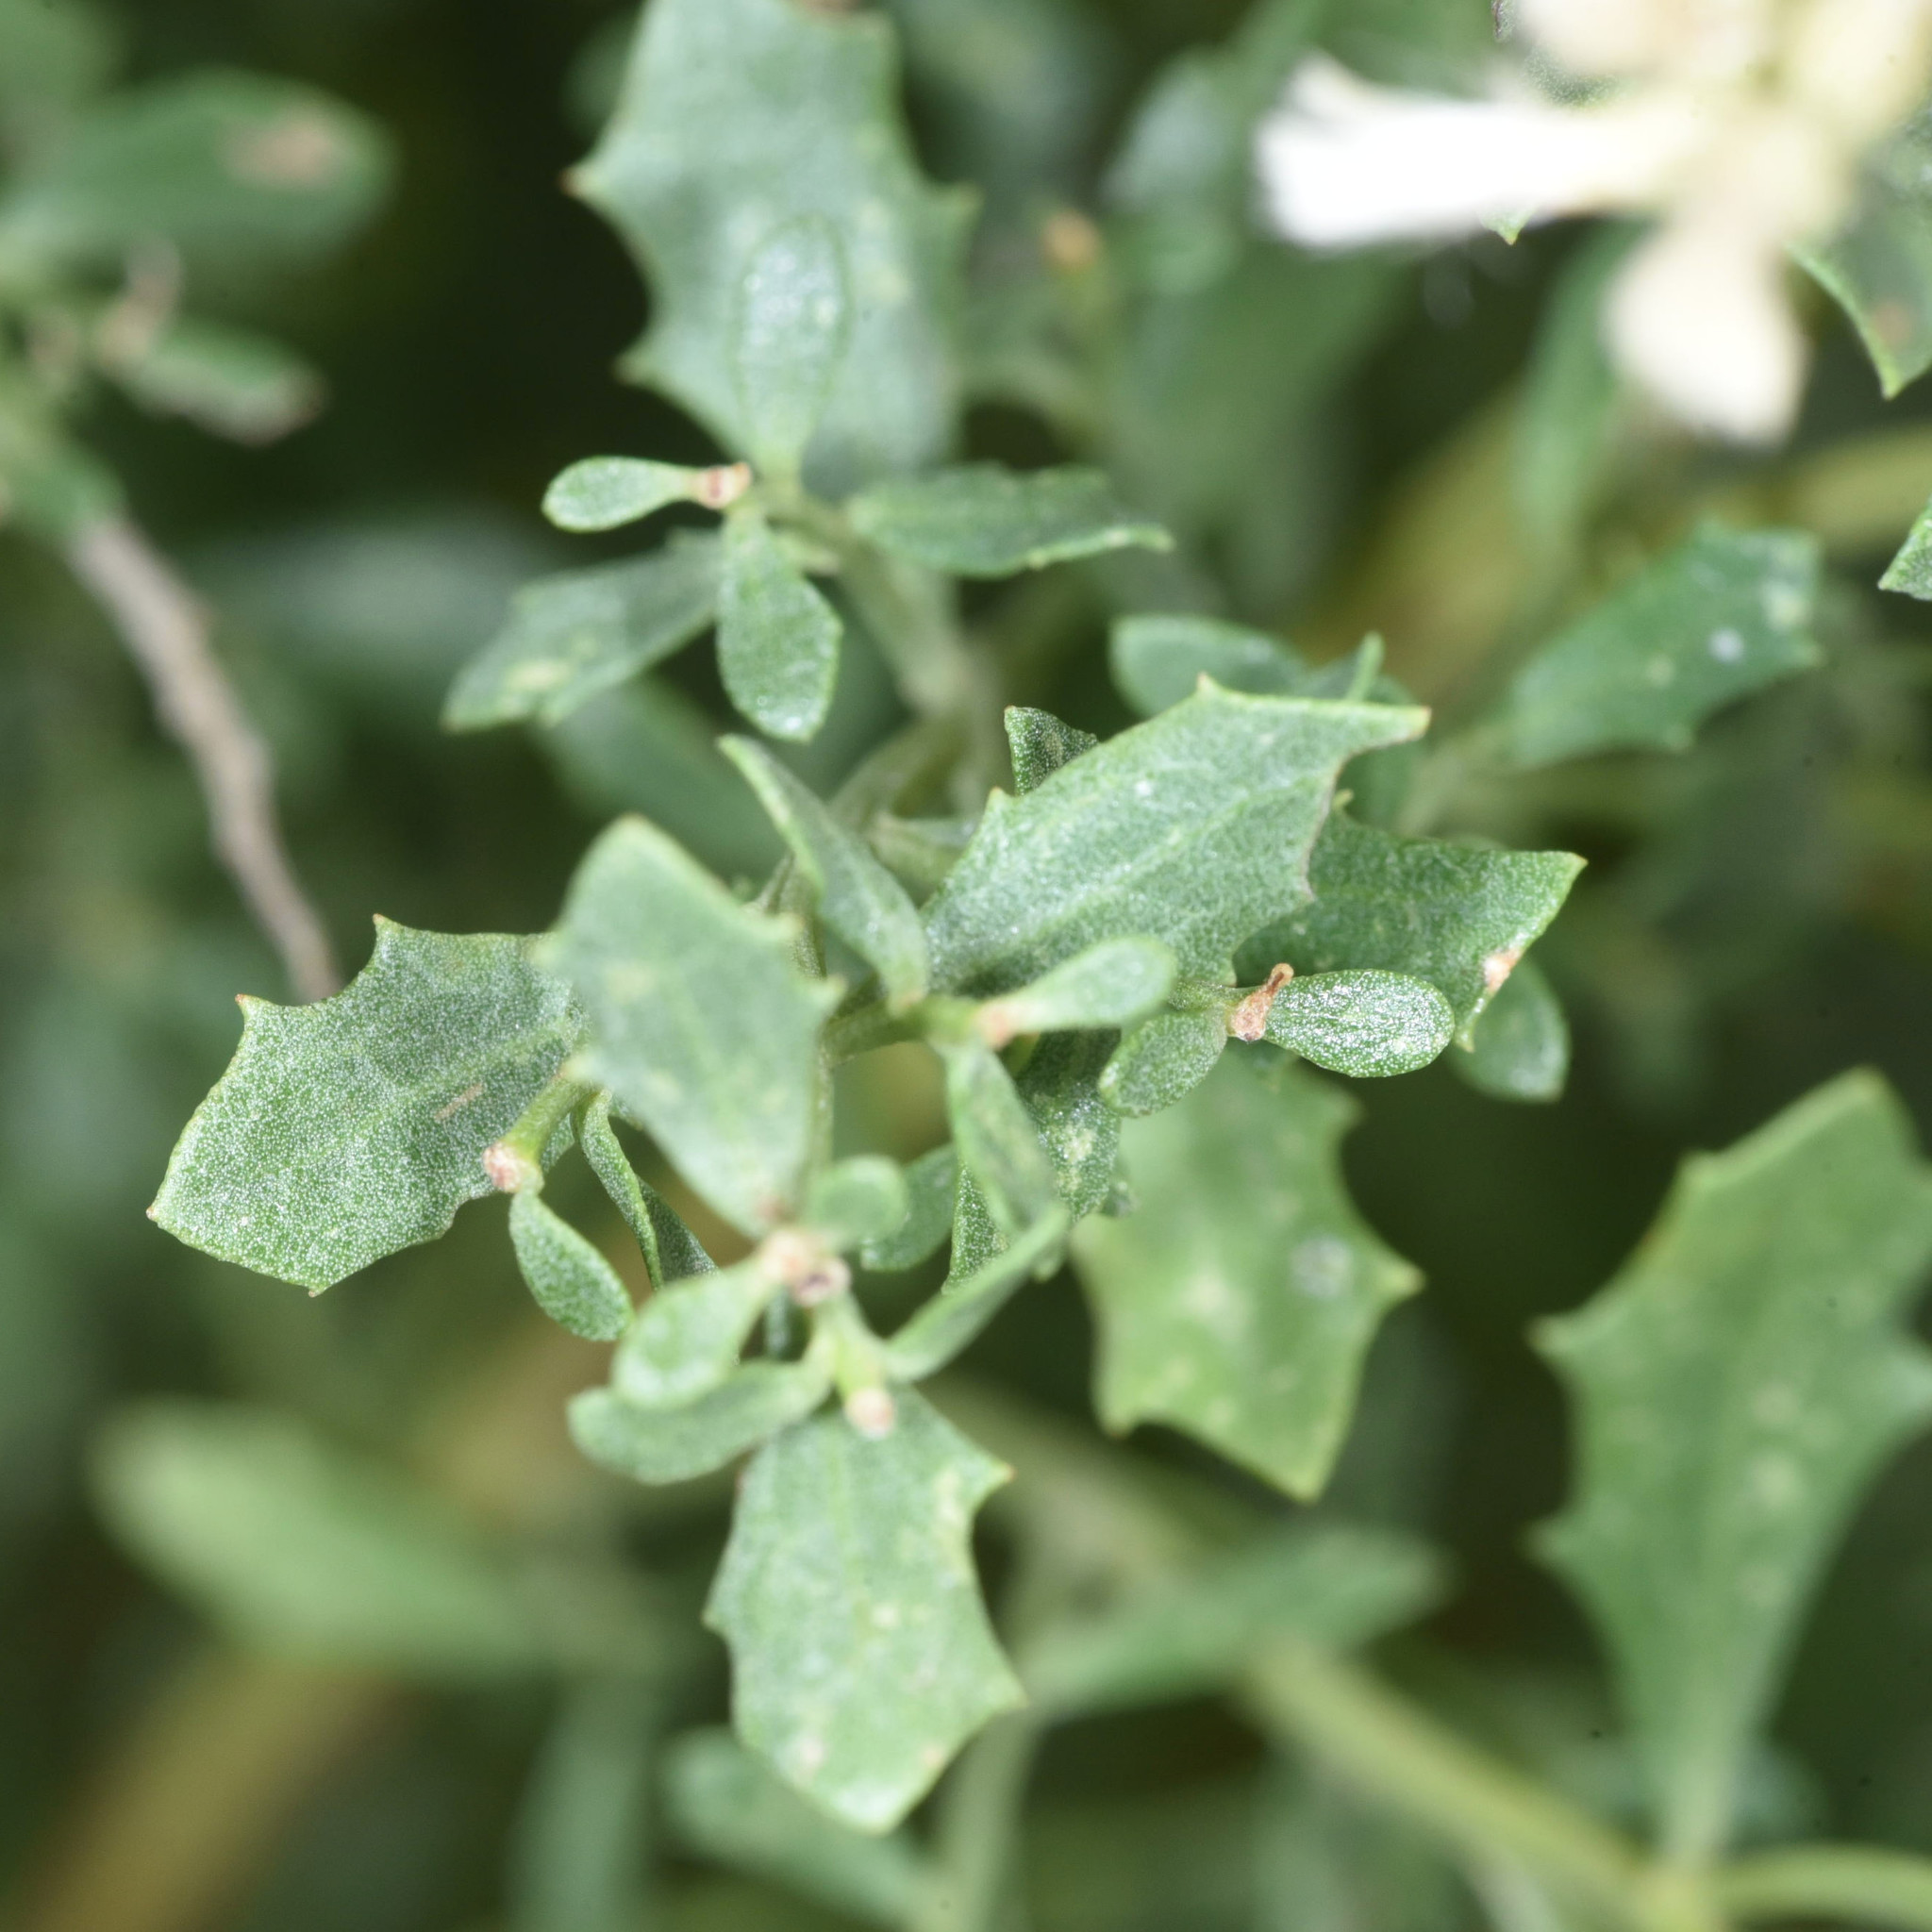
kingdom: Plantae
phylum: Tracheophyta
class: Magnoliopsida
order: Asterales
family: Asteraceae
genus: Baccharis
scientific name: Baccharis pilularis
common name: Coyotebrush
